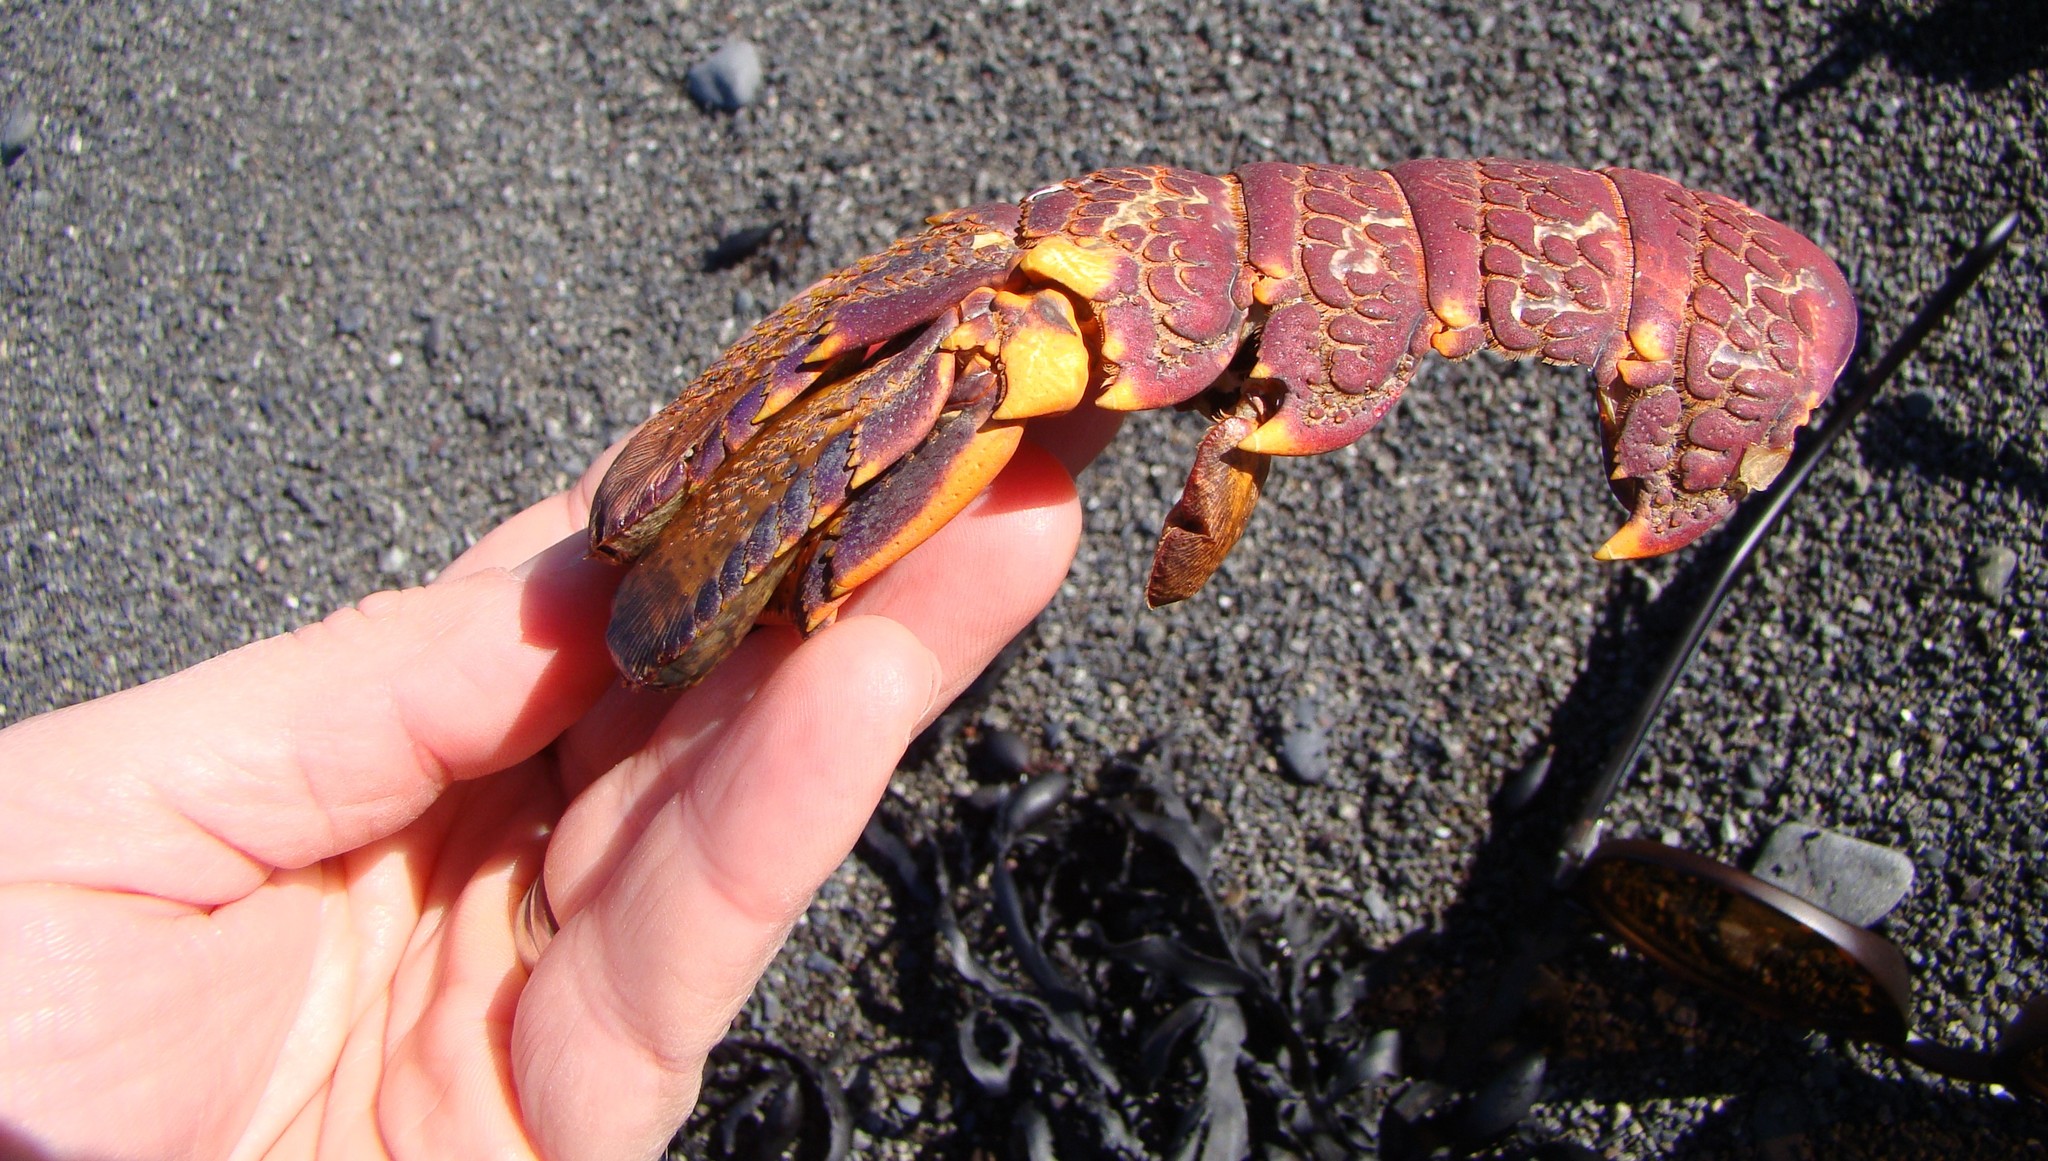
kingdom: Animalia
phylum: Arthropoda
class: Malacostraca
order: Decapoda
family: Palinuridae
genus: Jasus
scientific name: Jasus edwardsii
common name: Red rock lobster
